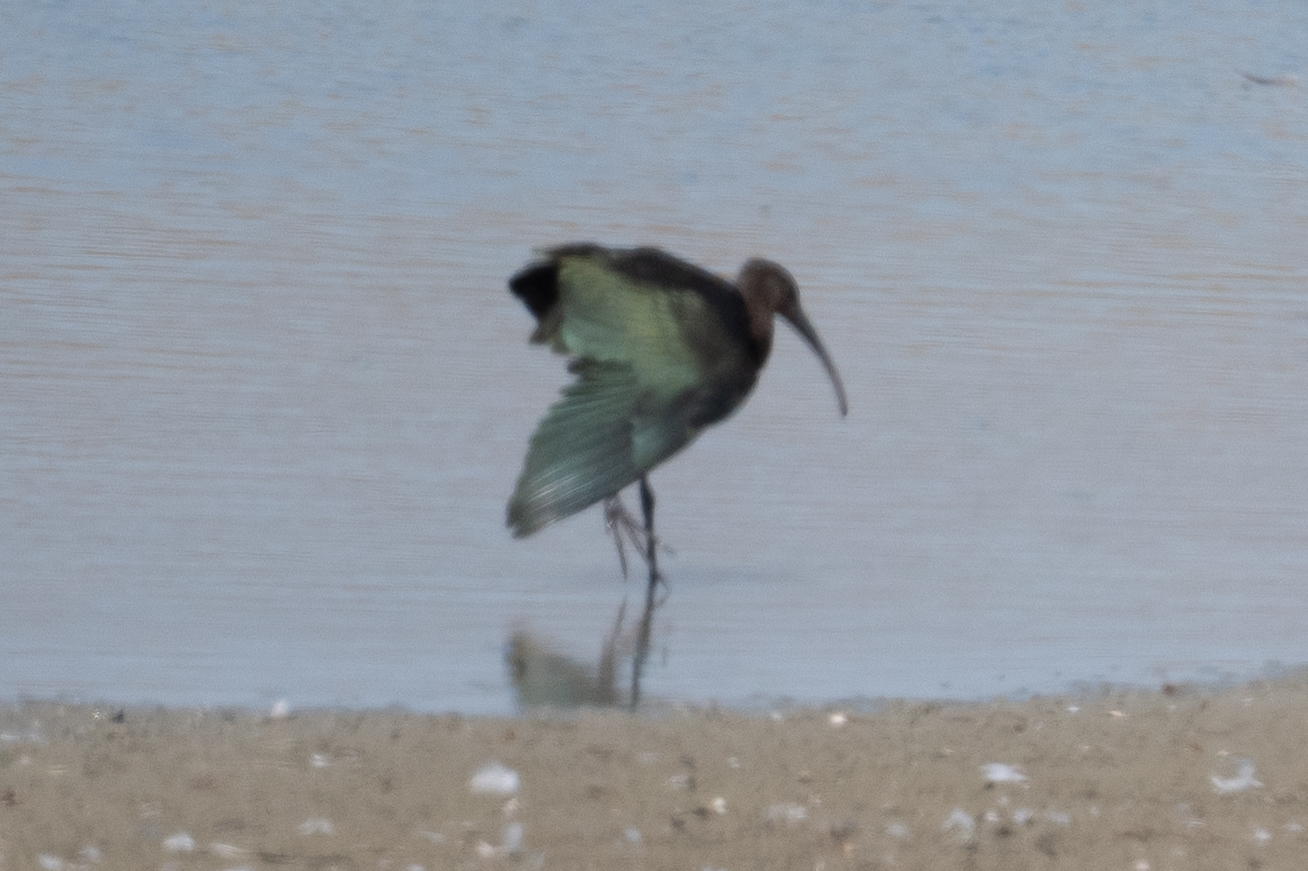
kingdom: Animalia
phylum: Chordata
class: Aves
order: Pelecaniformes
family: Threskiornithidae
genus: Plegadis
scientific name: Plegadis chihi
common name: White-faced ibis
